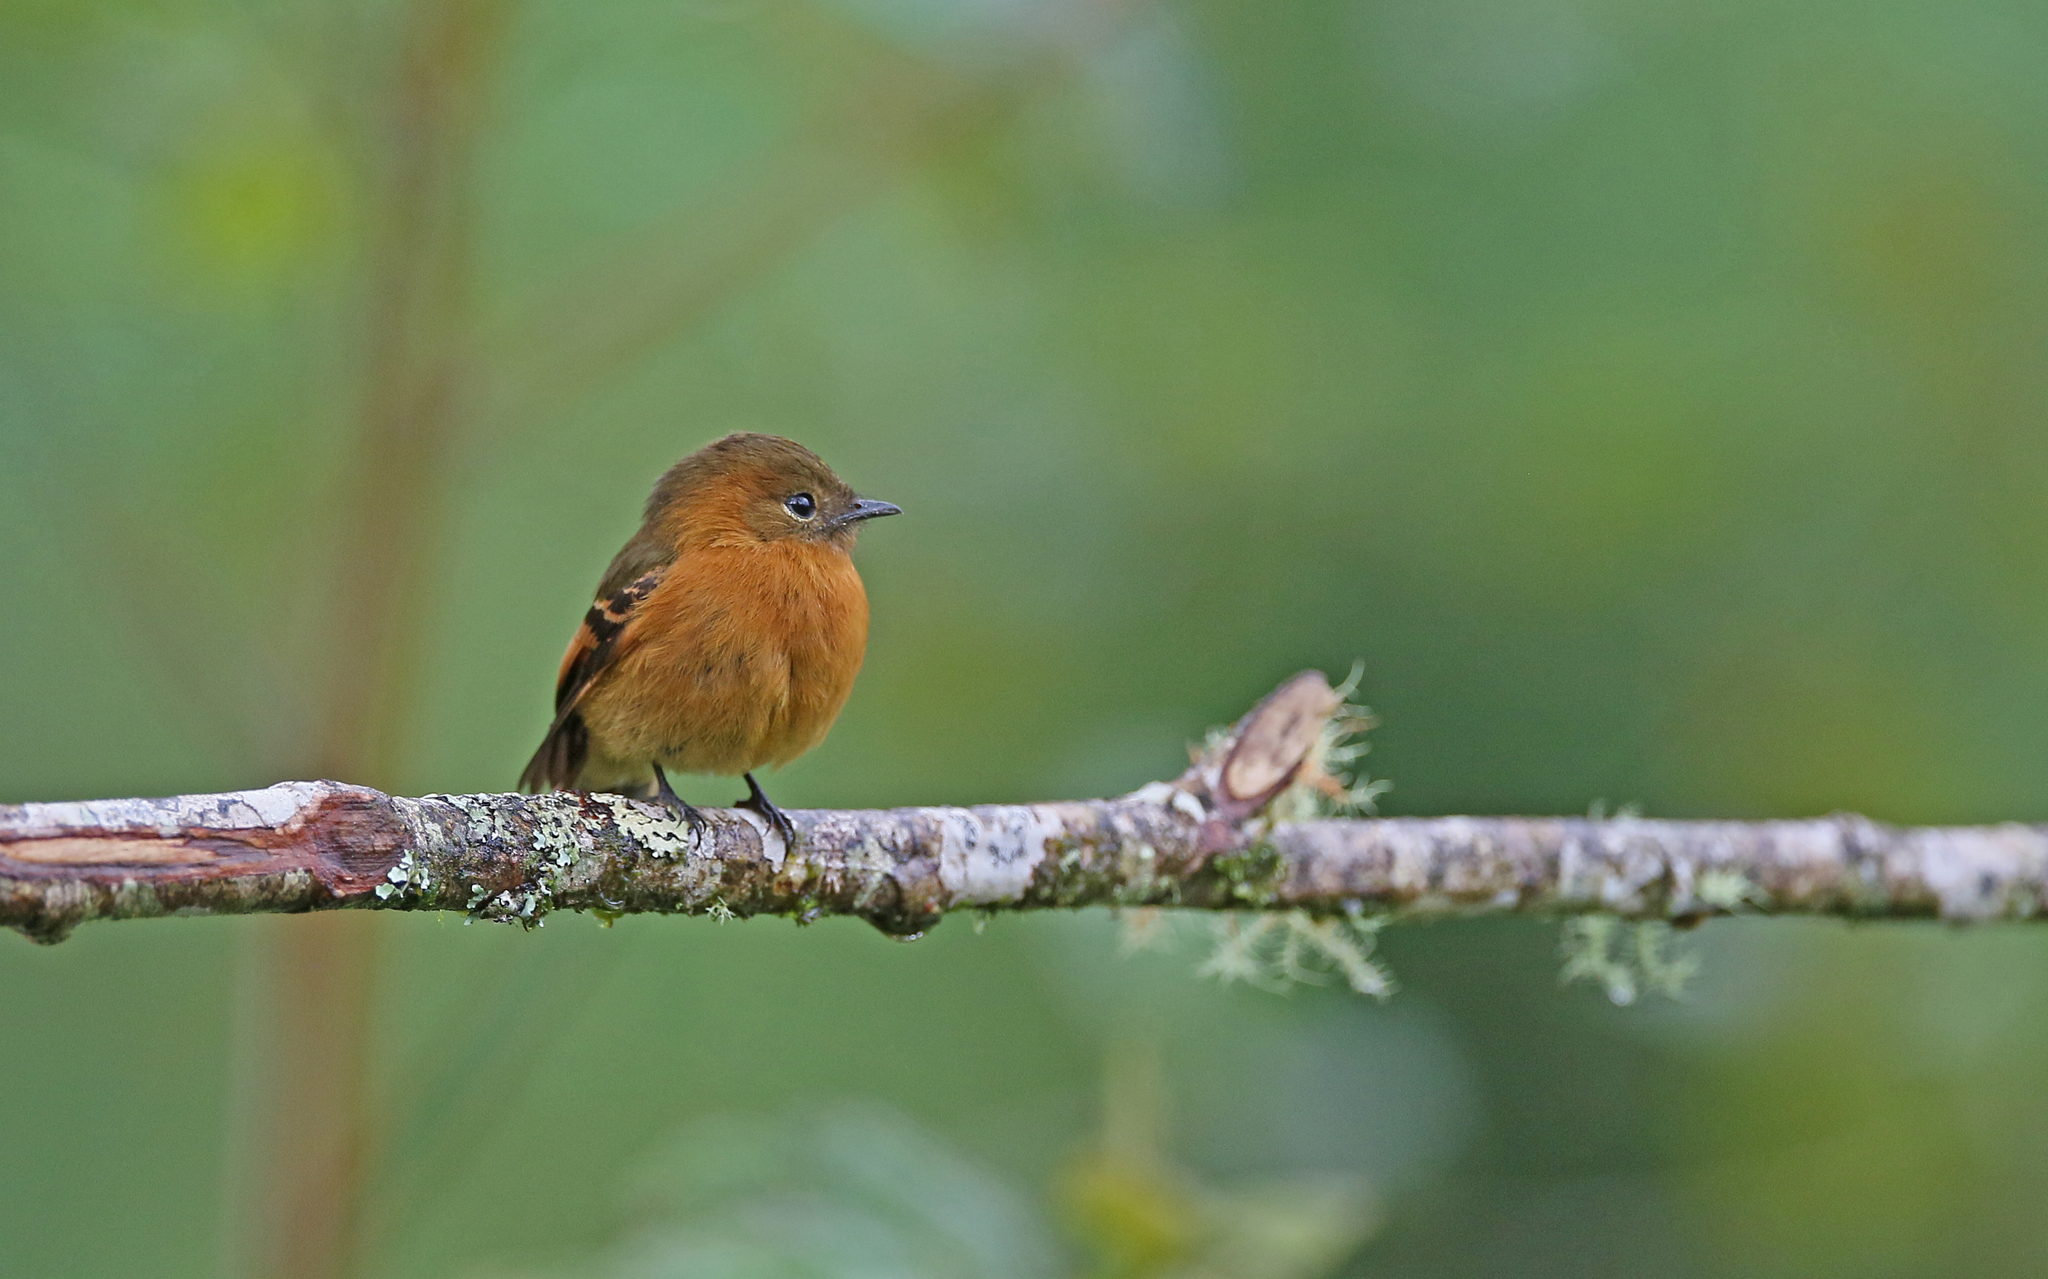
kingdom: Animalia
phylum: Chordata
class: Aves
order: Passeriformes
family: Tyrannidae
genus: Pyrrhomyias
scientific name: Pyrrhomyias cinnamomeus
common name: Cinnamon flycatcher
